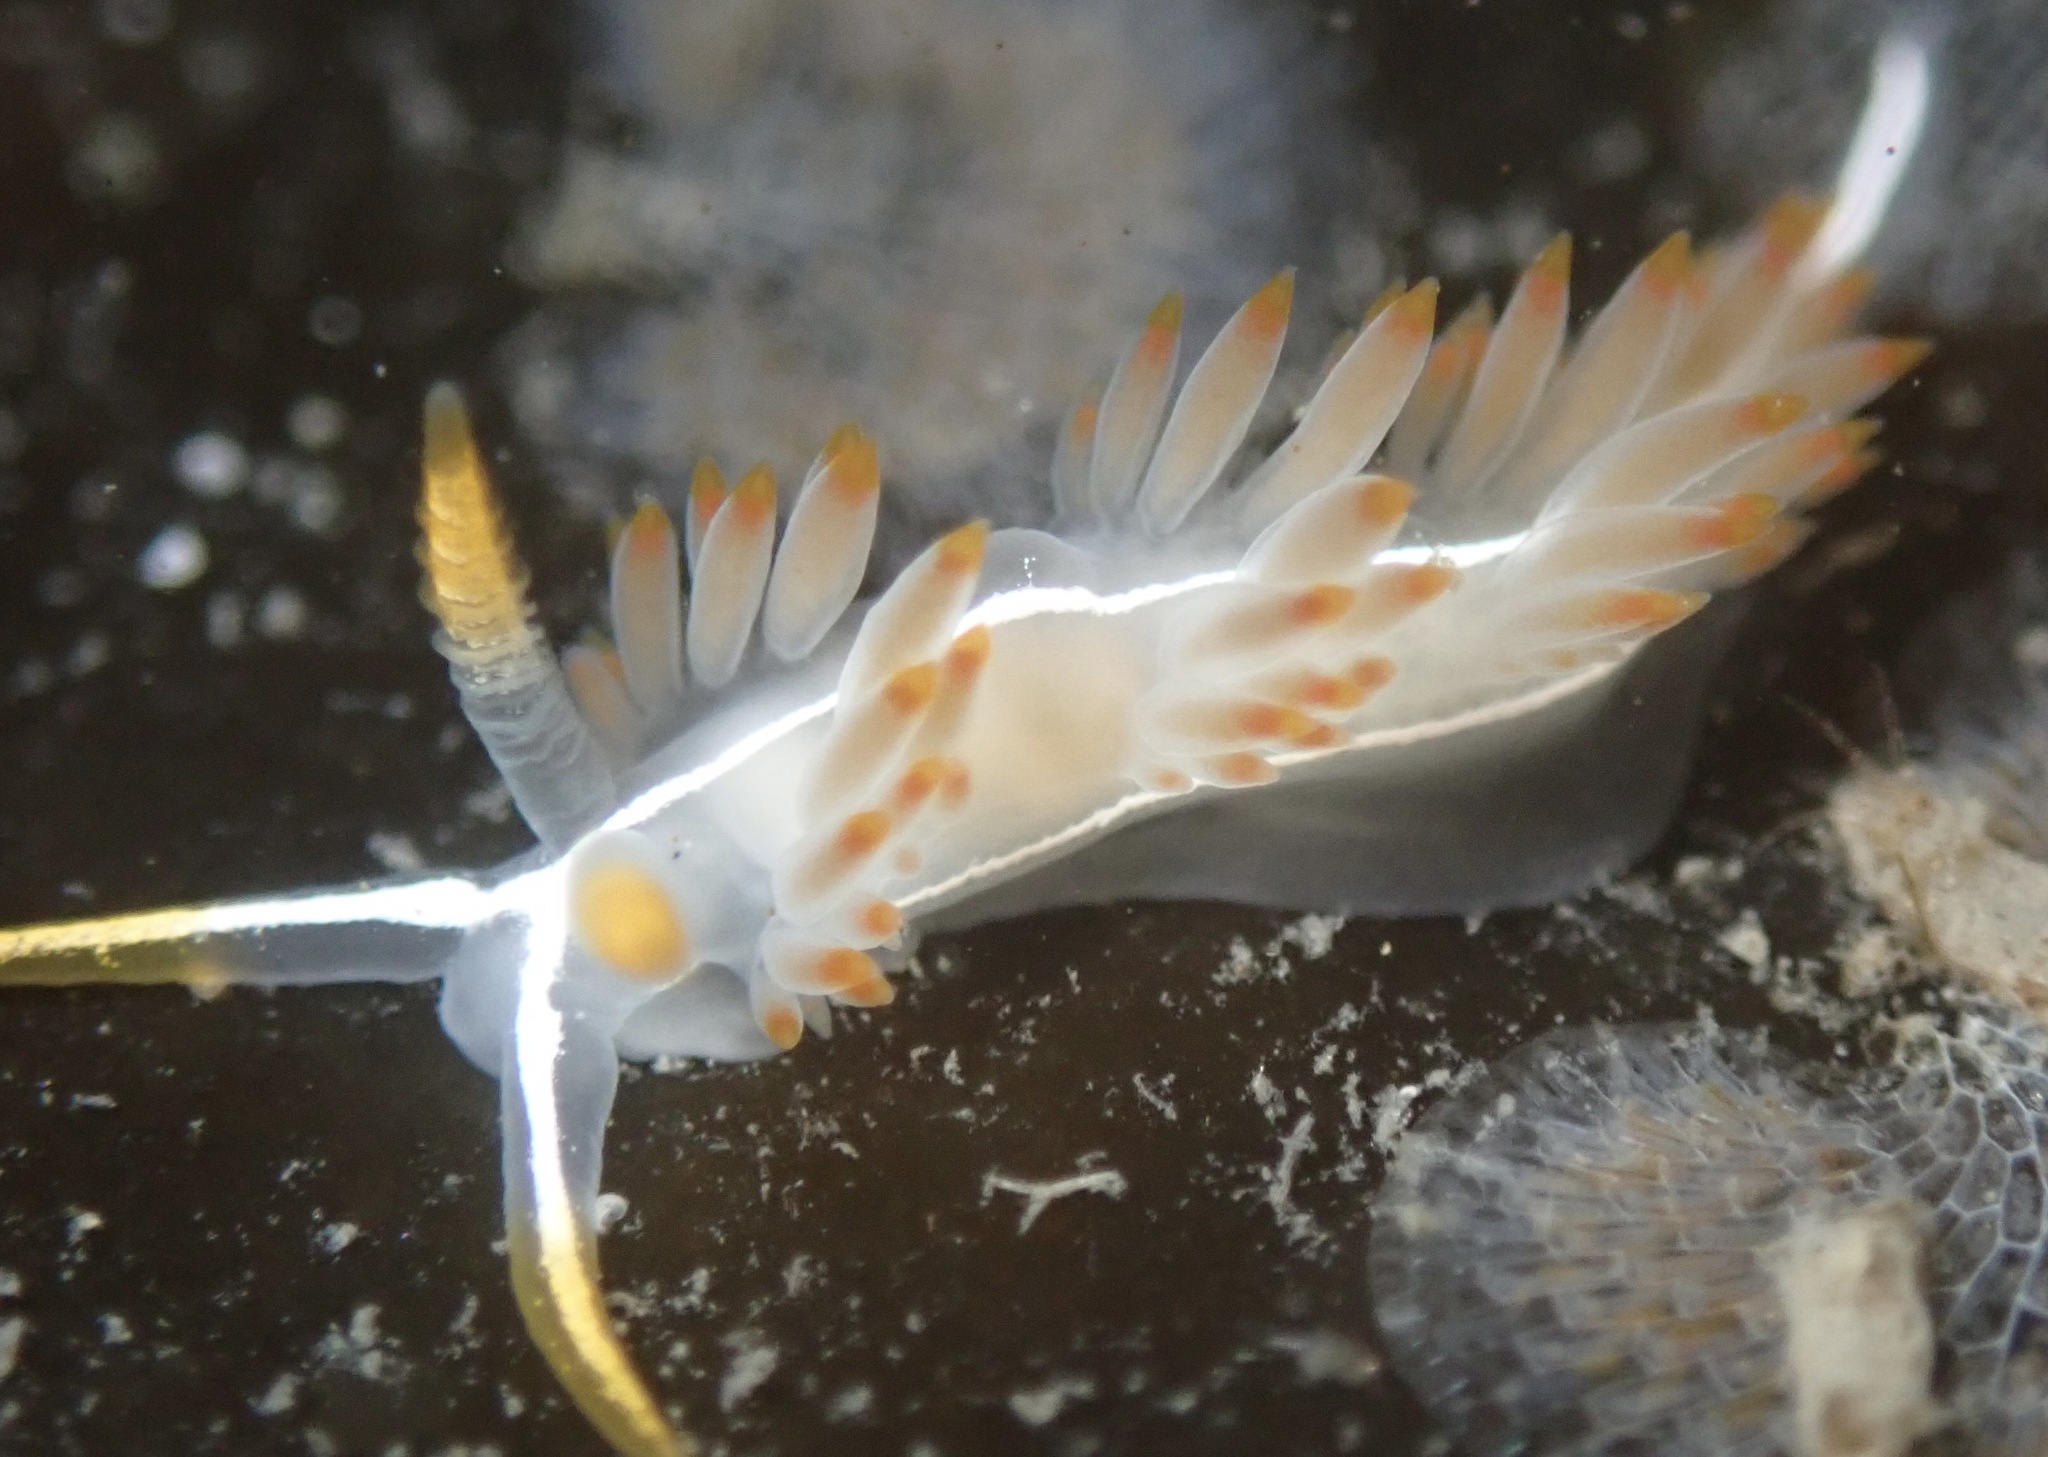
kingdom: Animalia
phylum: Mollusca
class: Gastropoda
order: Nudibranchia
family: Coryphellidae
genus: Coryphella
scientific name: Coryphella trilineata
